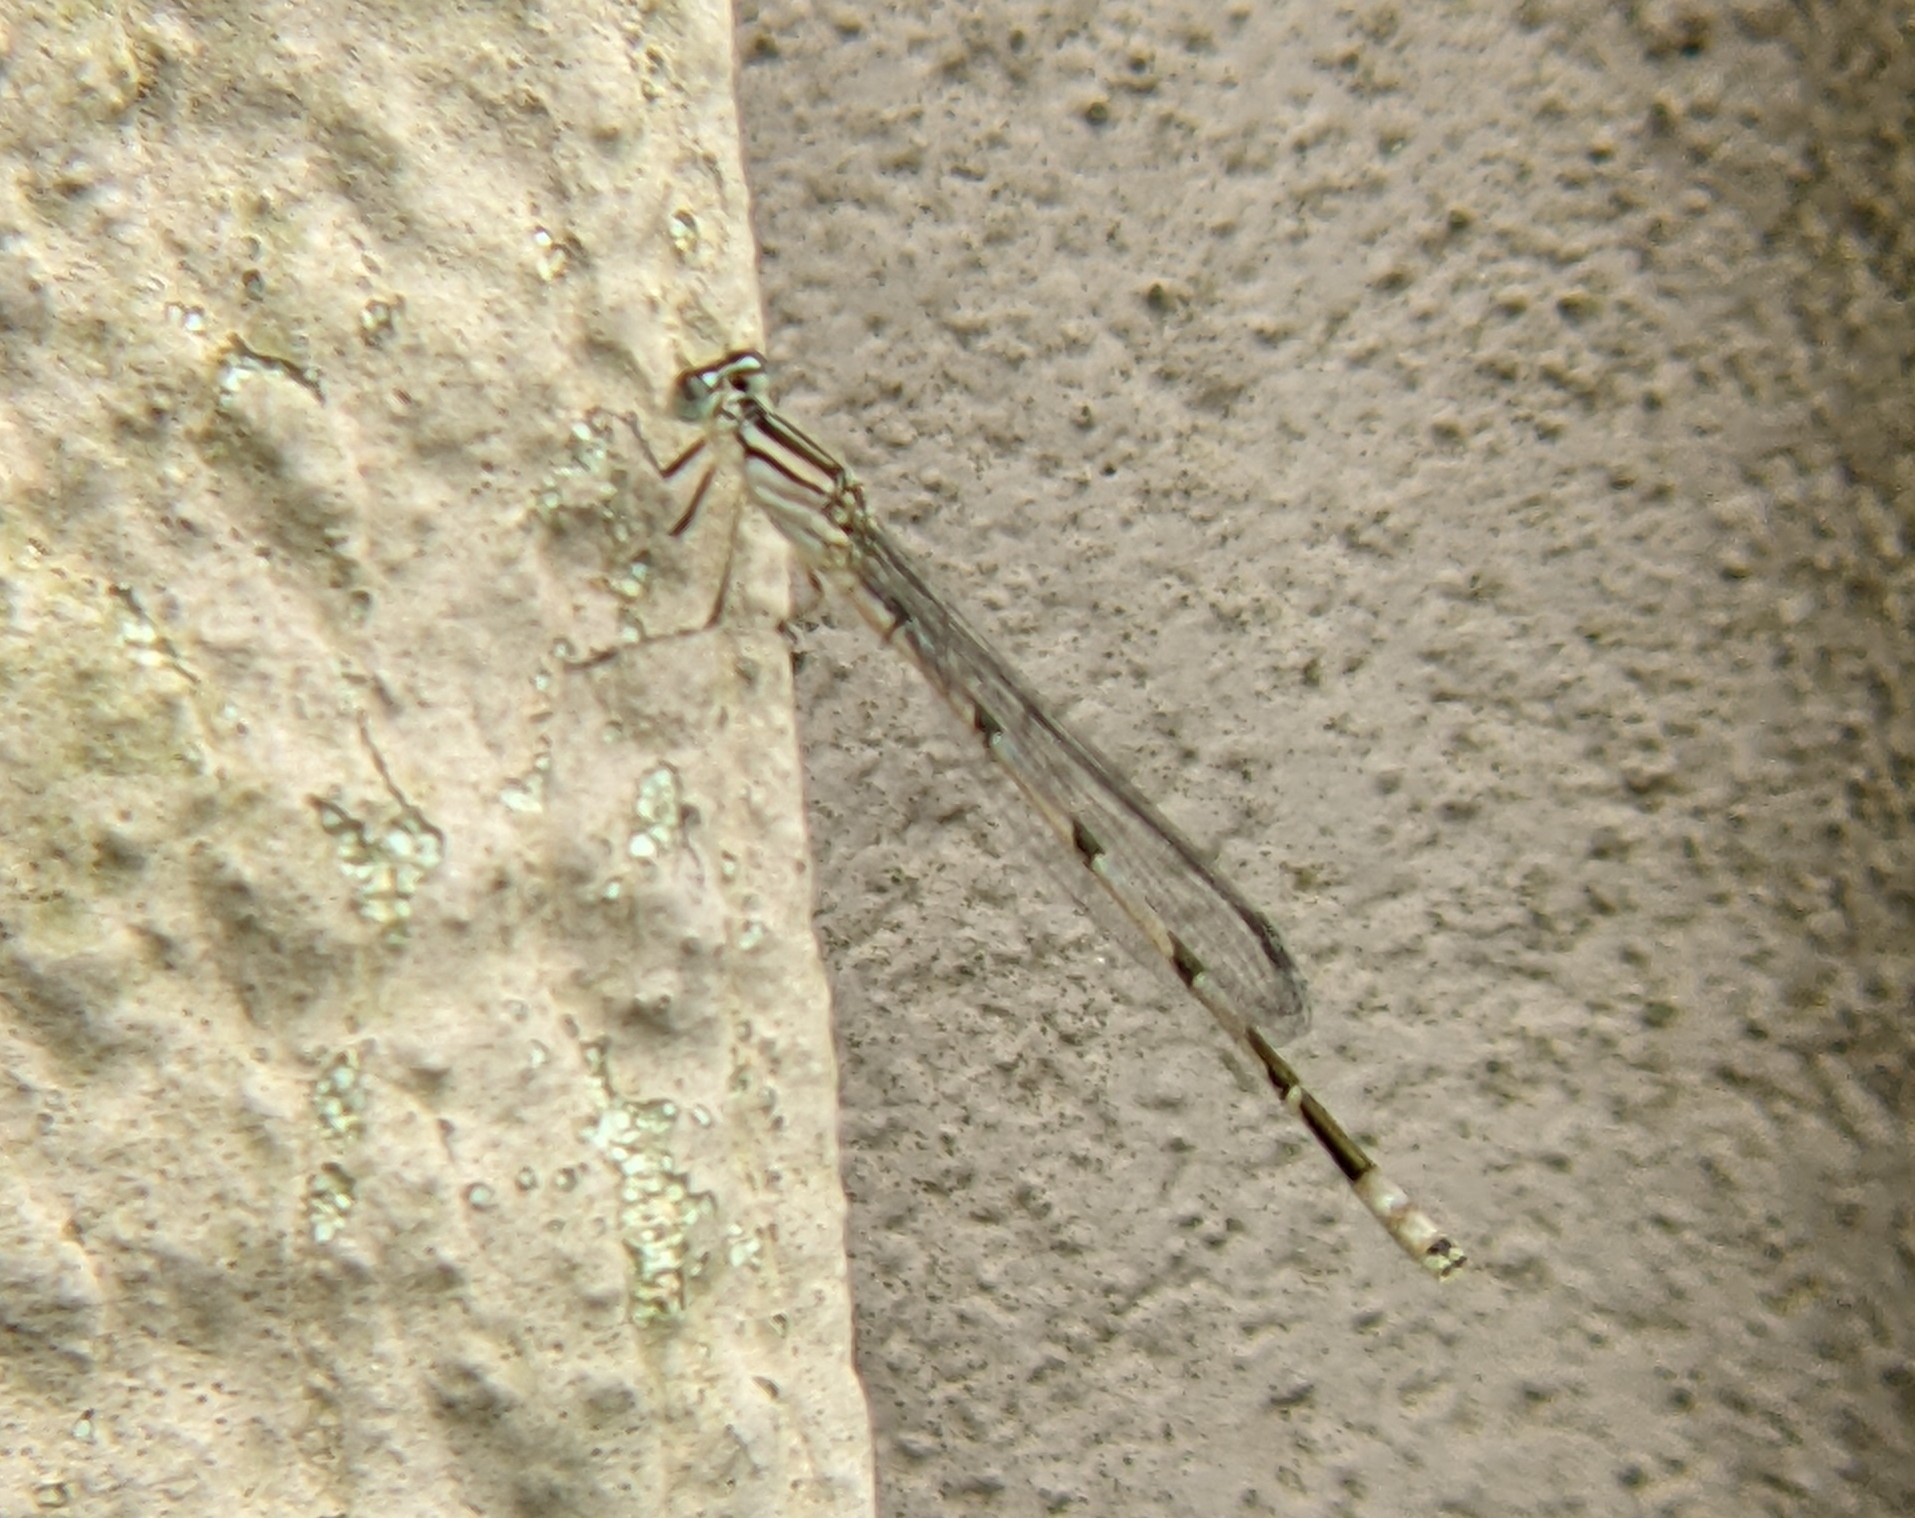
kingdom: Animalia
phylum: Arthropoda
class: Insecta
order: Odonata
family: Coenagrionidae
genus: Enallagma
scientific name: Enallagma durum
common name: Big bluet
